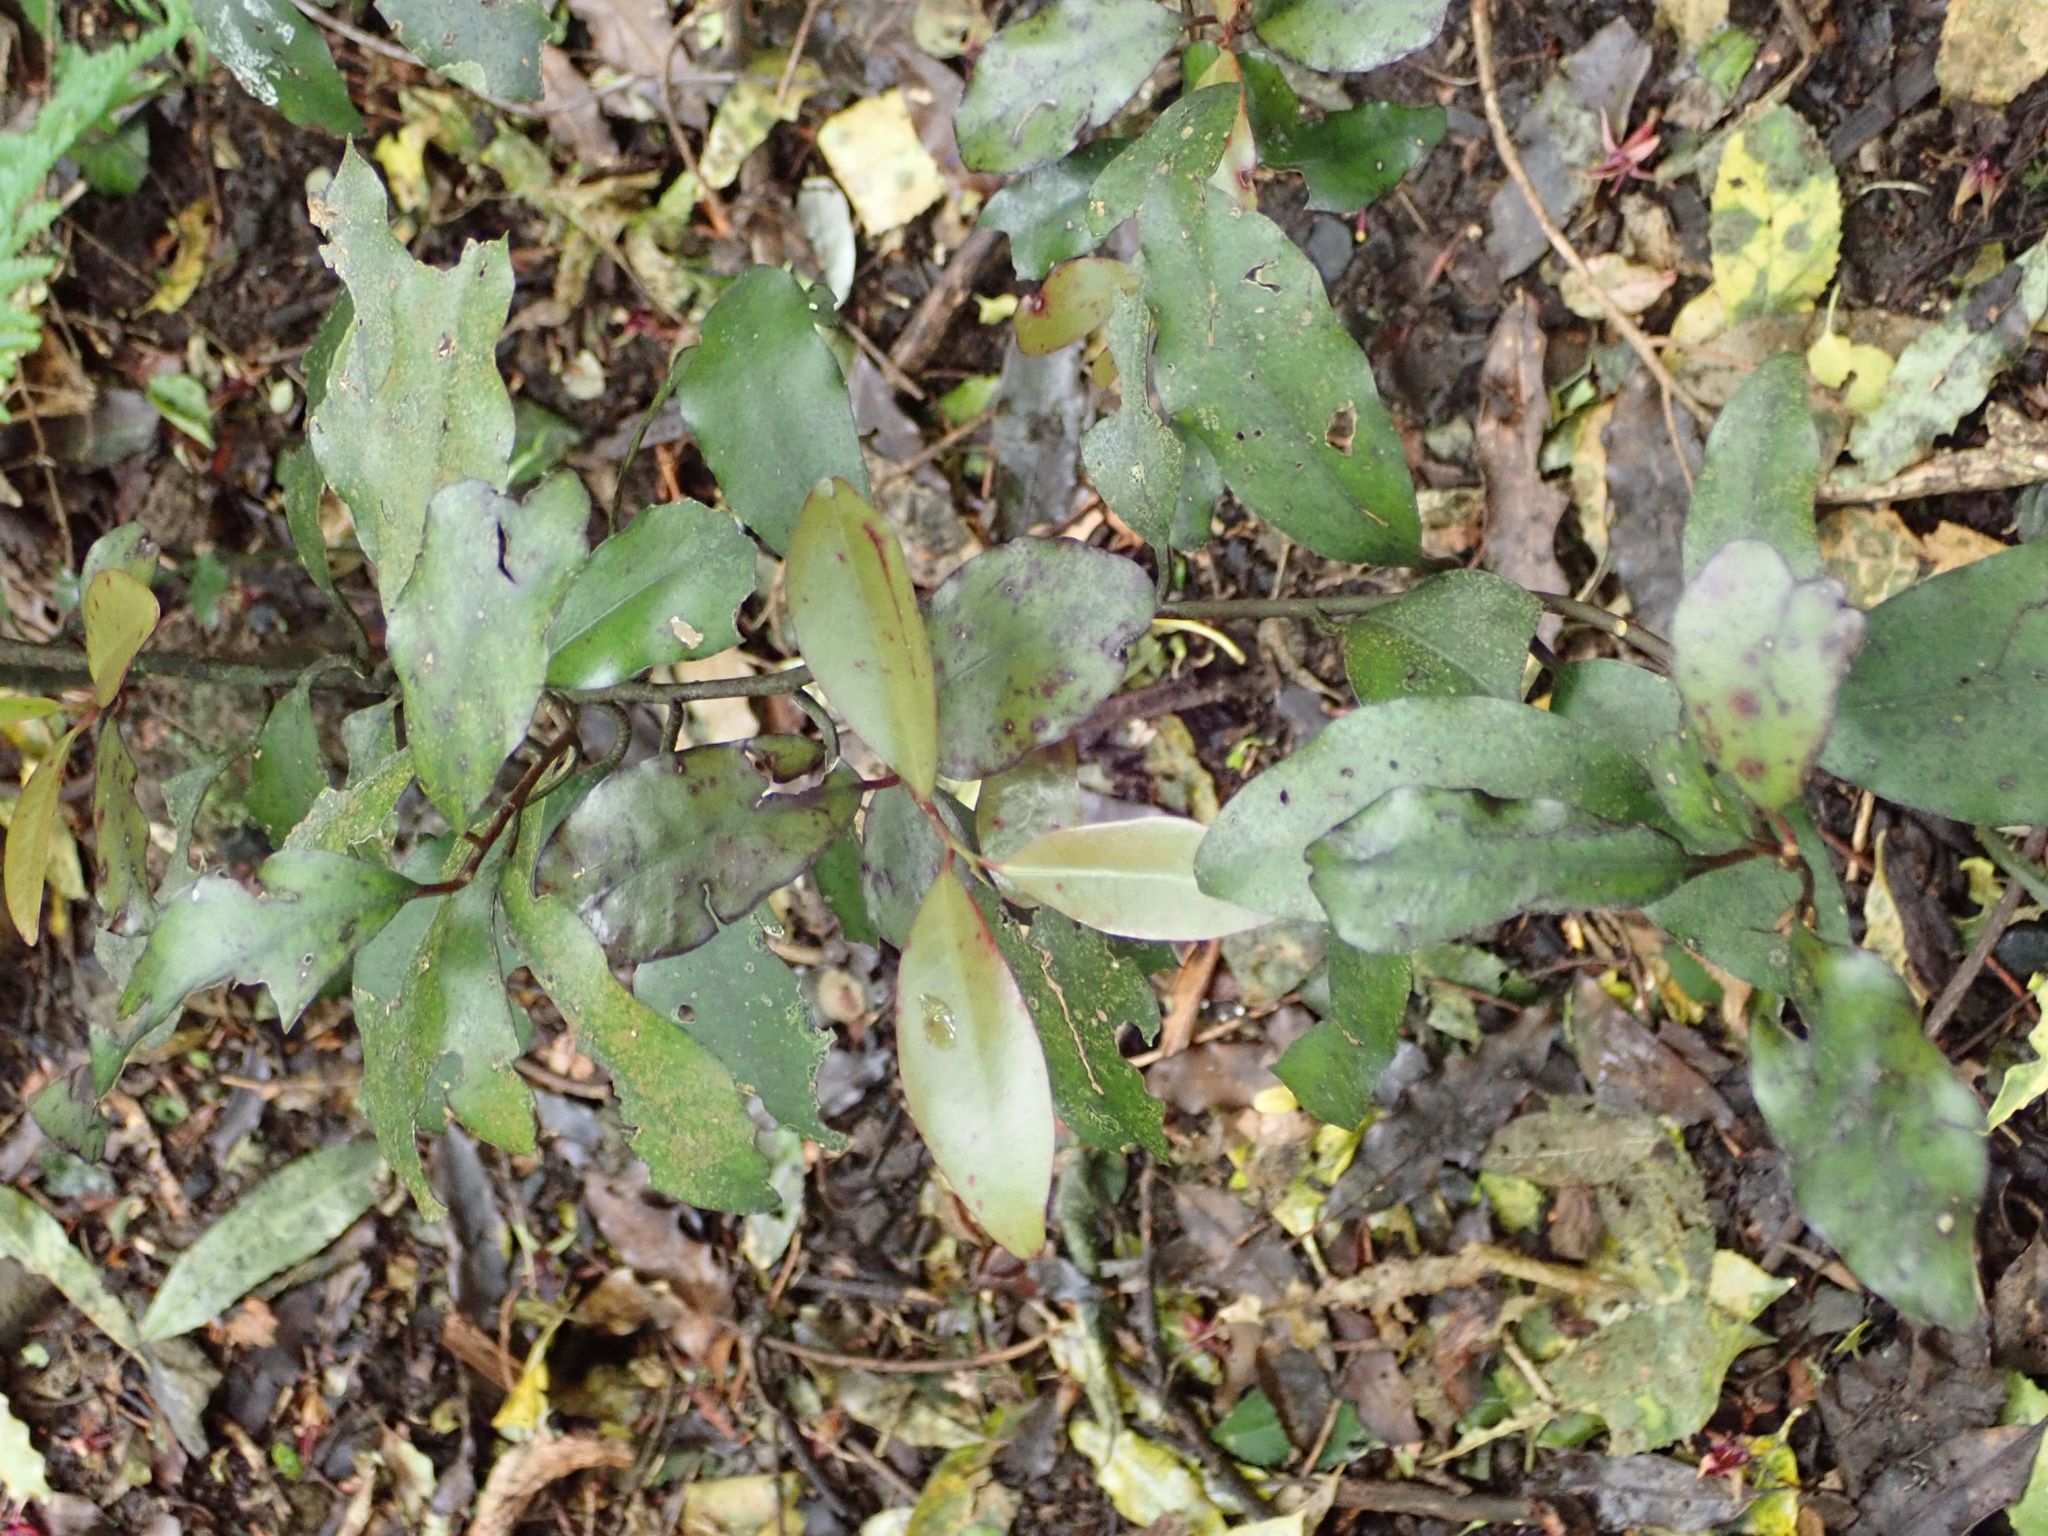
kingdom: Plantae
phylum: Tracheophyta
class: Magnoliopsida
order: Canellales
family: Winteraceae
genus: Pseudowintera
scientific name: Pseudowintera colorata
